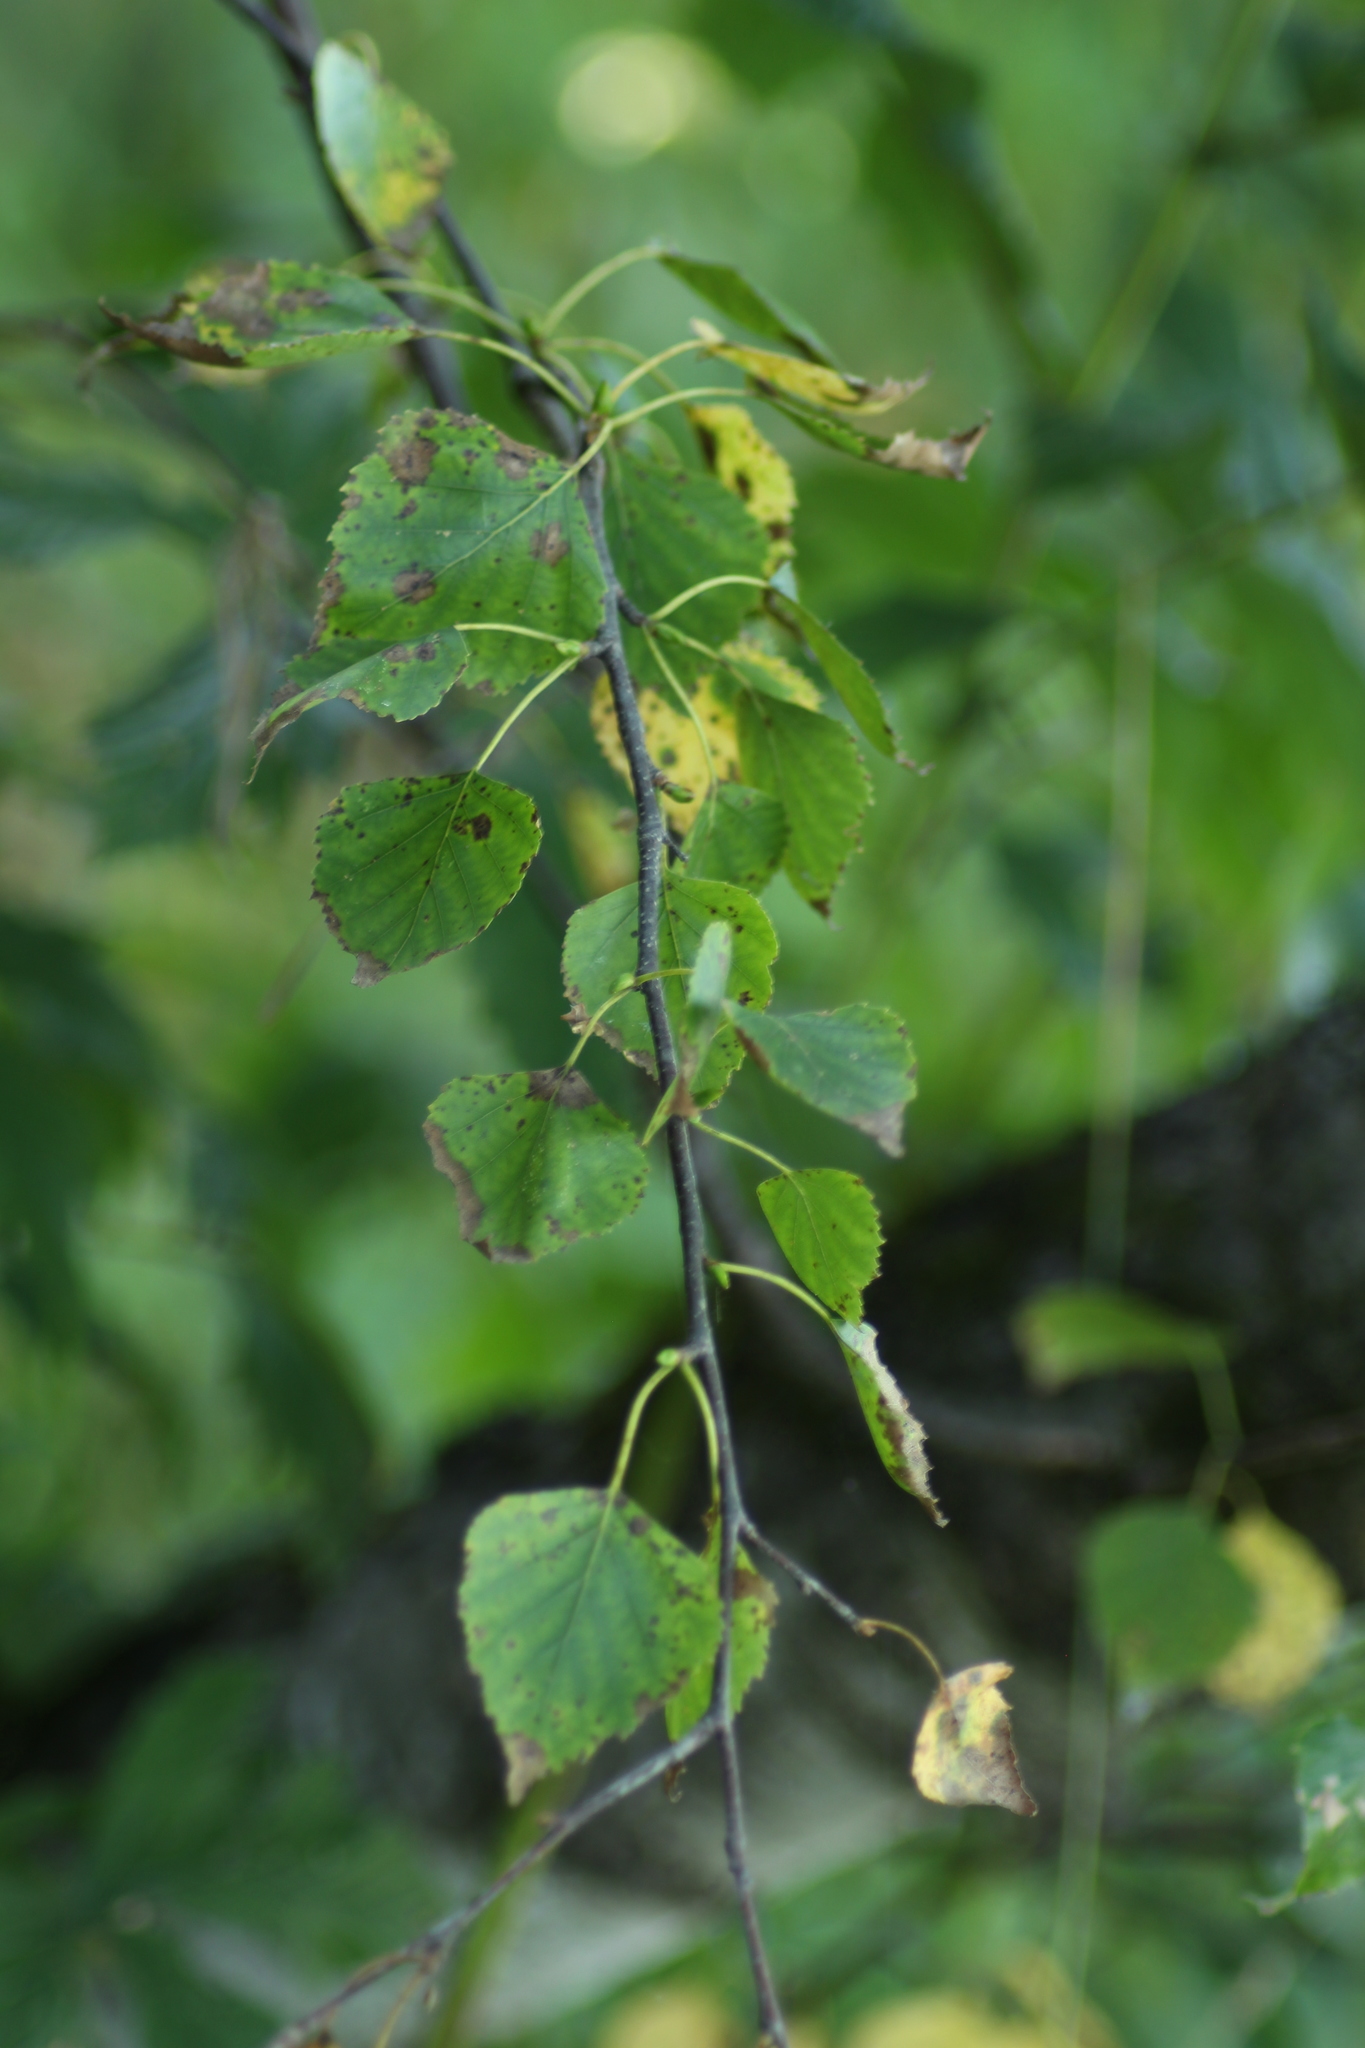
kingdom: Plantae
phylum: Tracheophyta
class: Magnoliopsida
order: Fagales
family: Betulaceae
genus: Betula
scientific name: Betula pendula
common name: Silver birch
